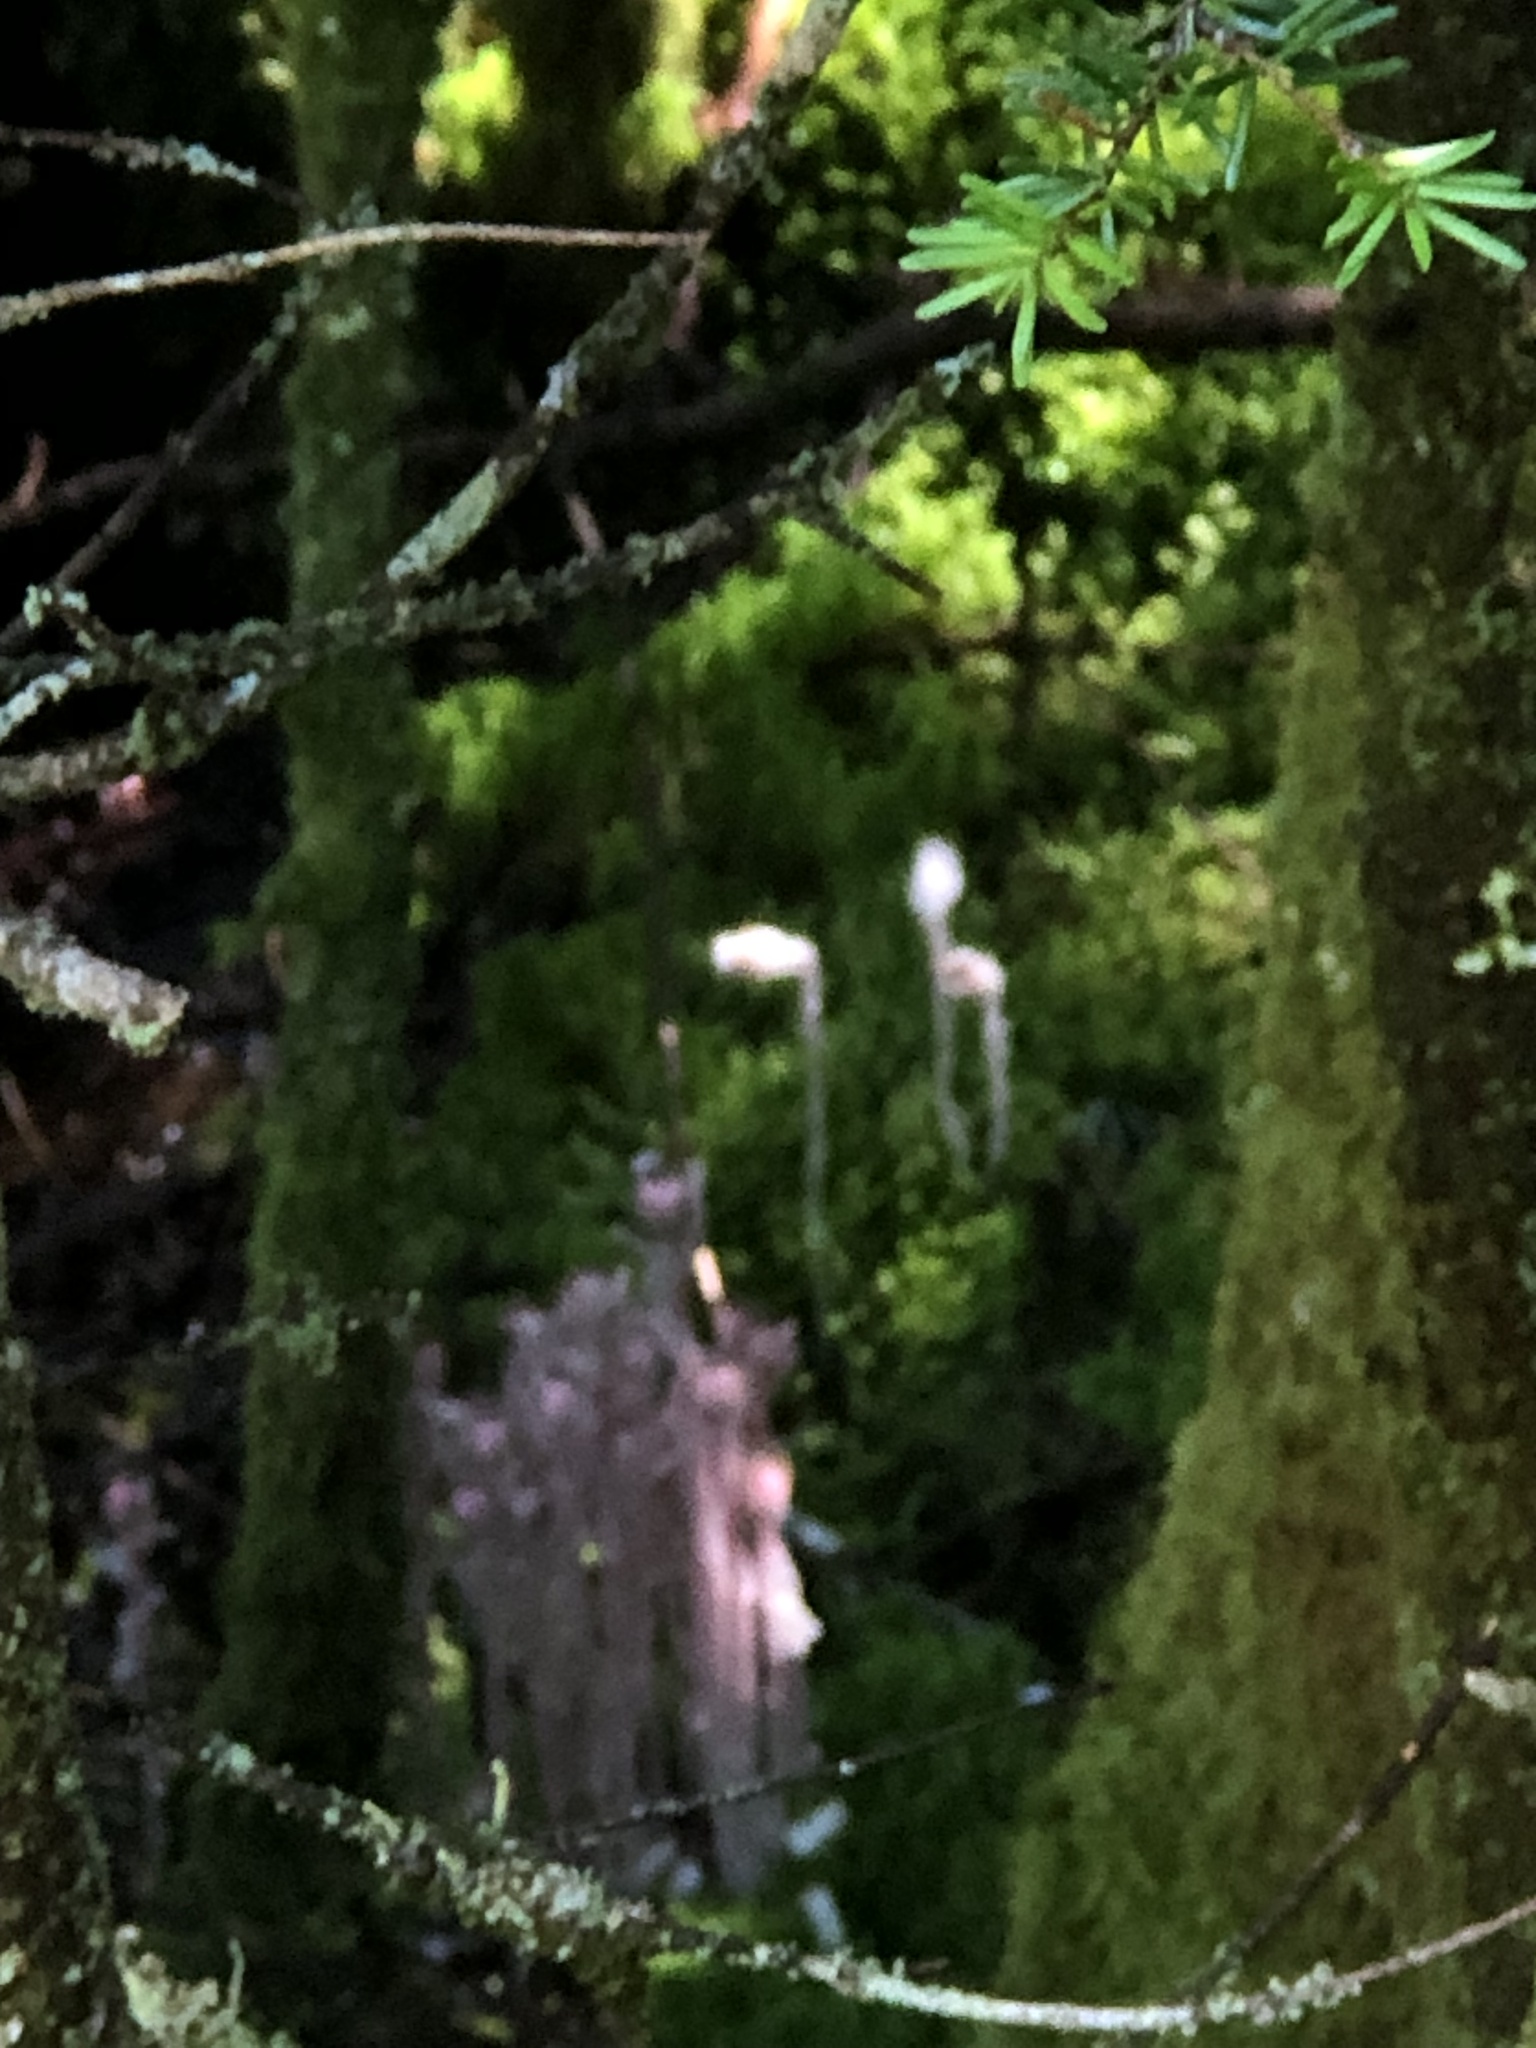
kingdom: Plantae
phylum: Tracheophyta
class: Magnoliopsida
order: Ericales
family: Ericaceae
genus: Monotropa
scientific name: Monotropa uniflora
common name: Convulsion root
